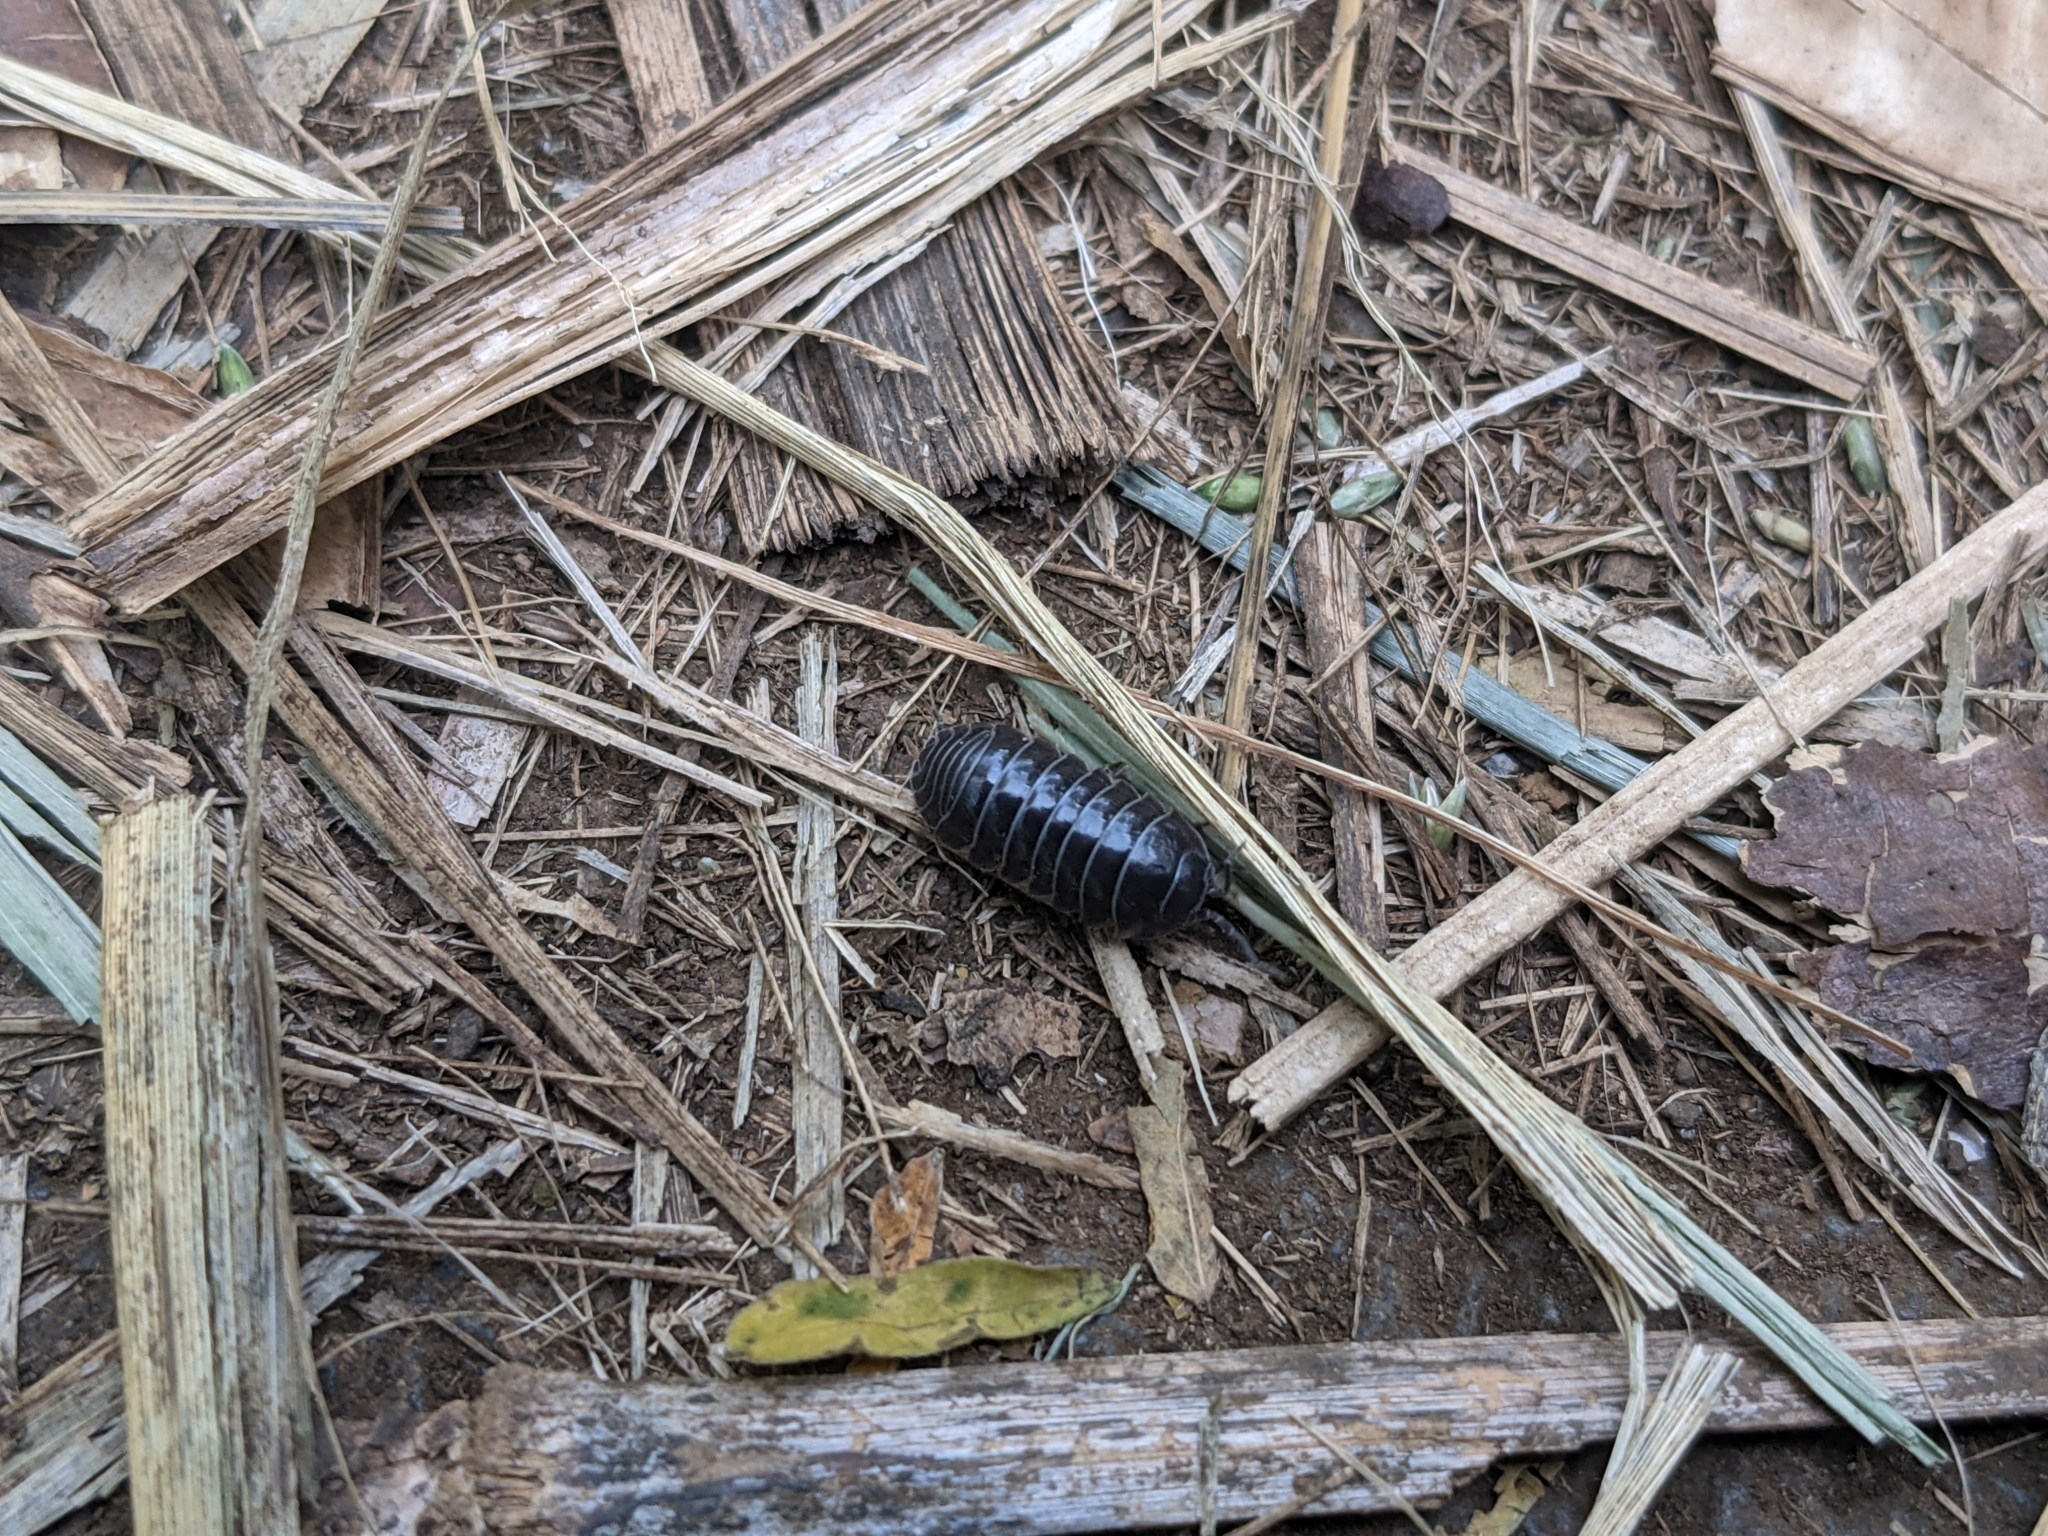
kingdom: Animalia
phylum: Arthropoda
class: Malacostraca
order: Isopoda
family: Armadillidiidae
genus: Armadillidium
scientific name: Armadillidium vulgare
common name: Common pill woodlouse
